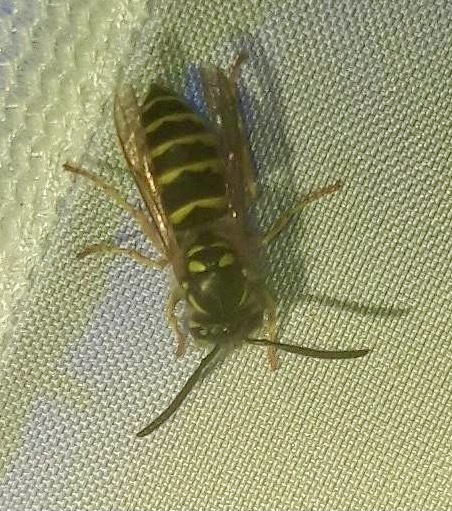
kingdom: Animalia
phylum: Arthropoda
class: Insecta
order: Hymenoptera
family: Vespidae
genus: Vespula
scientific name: Vespula vulgaris
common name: Common wasp
